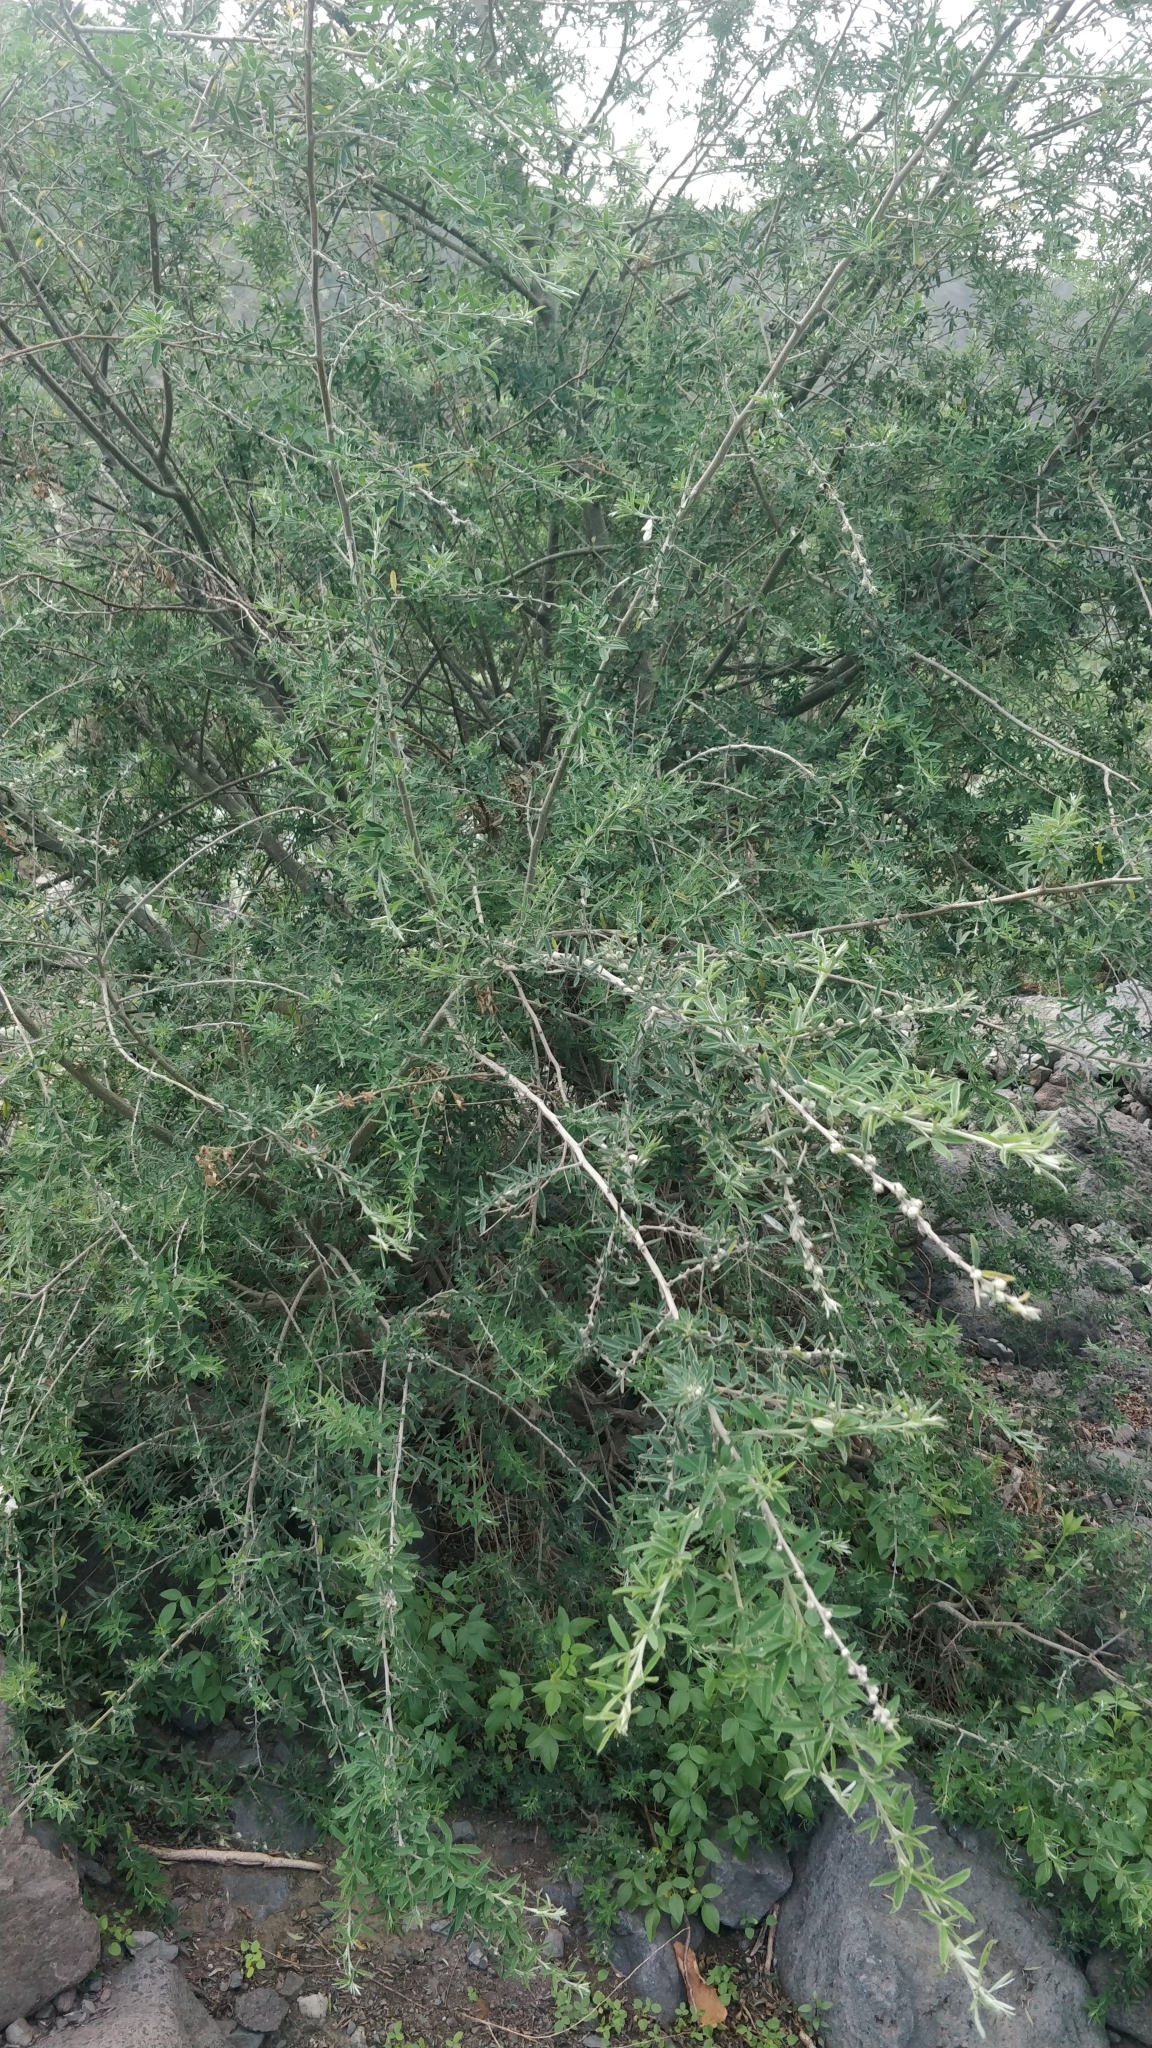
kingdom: Plantae
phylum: Tracheophyta
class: Magnoliopsida
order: Fabales
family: Fabaceae
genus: Chamaecytisus
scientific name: Chamaecytisus prolifer
